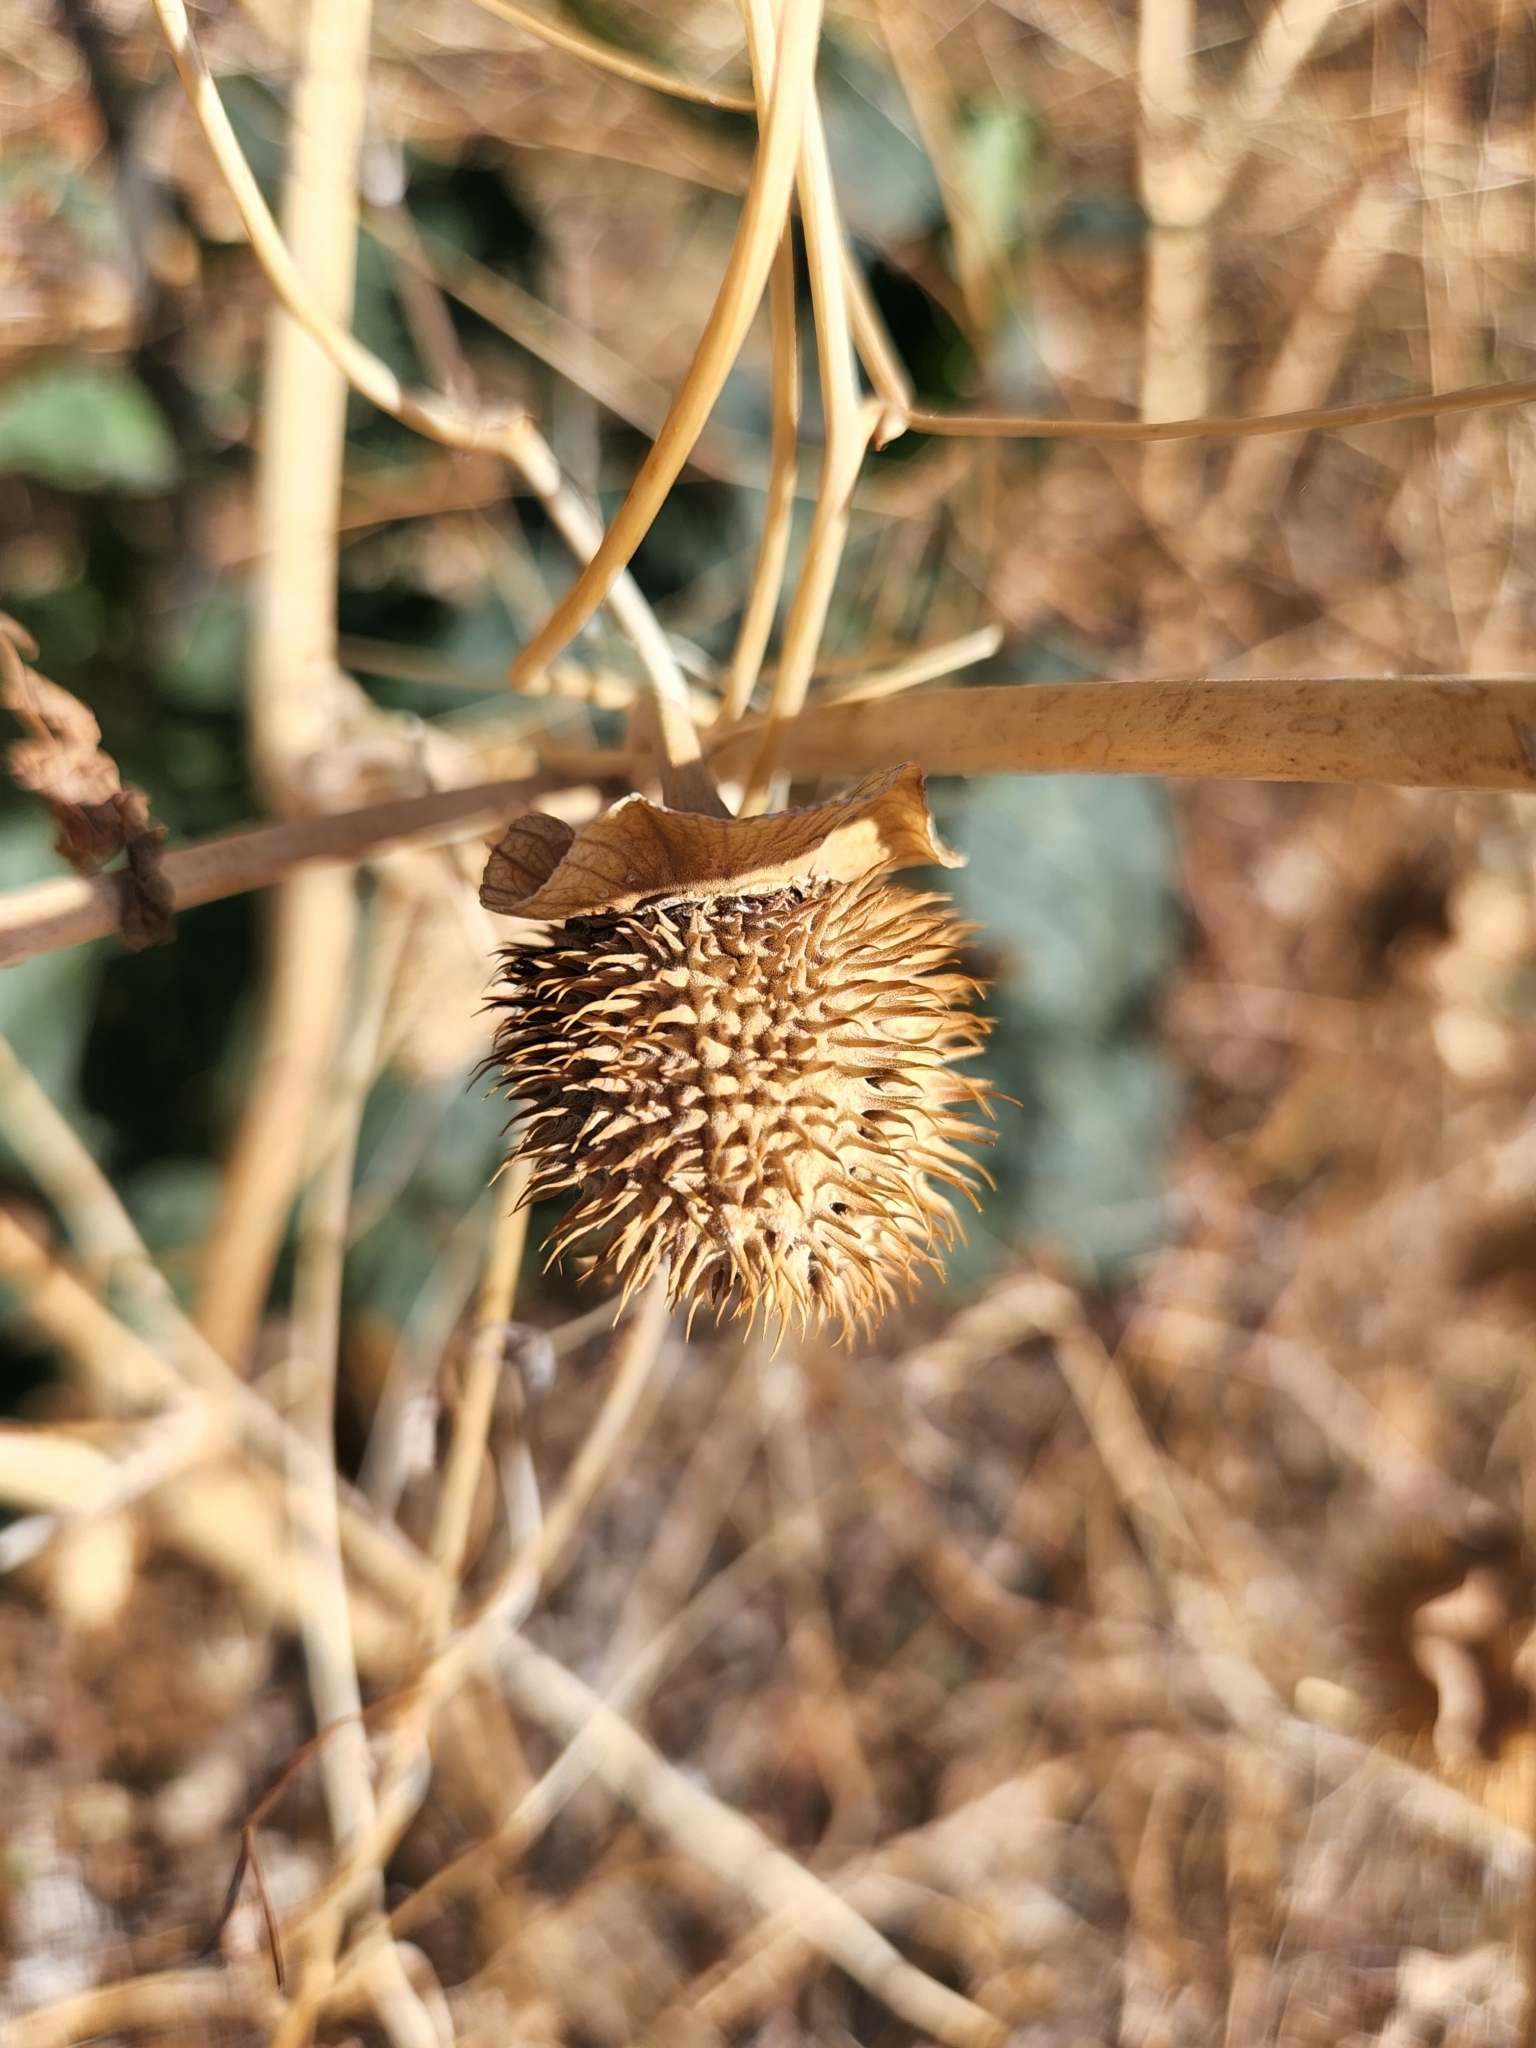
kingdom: Plantae
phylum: Tracheophyta
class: Magnoliopsida
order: Solanales
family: Solanaceae
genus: Datura
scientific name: Datura wrightii
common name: Sacred thorn-apple
